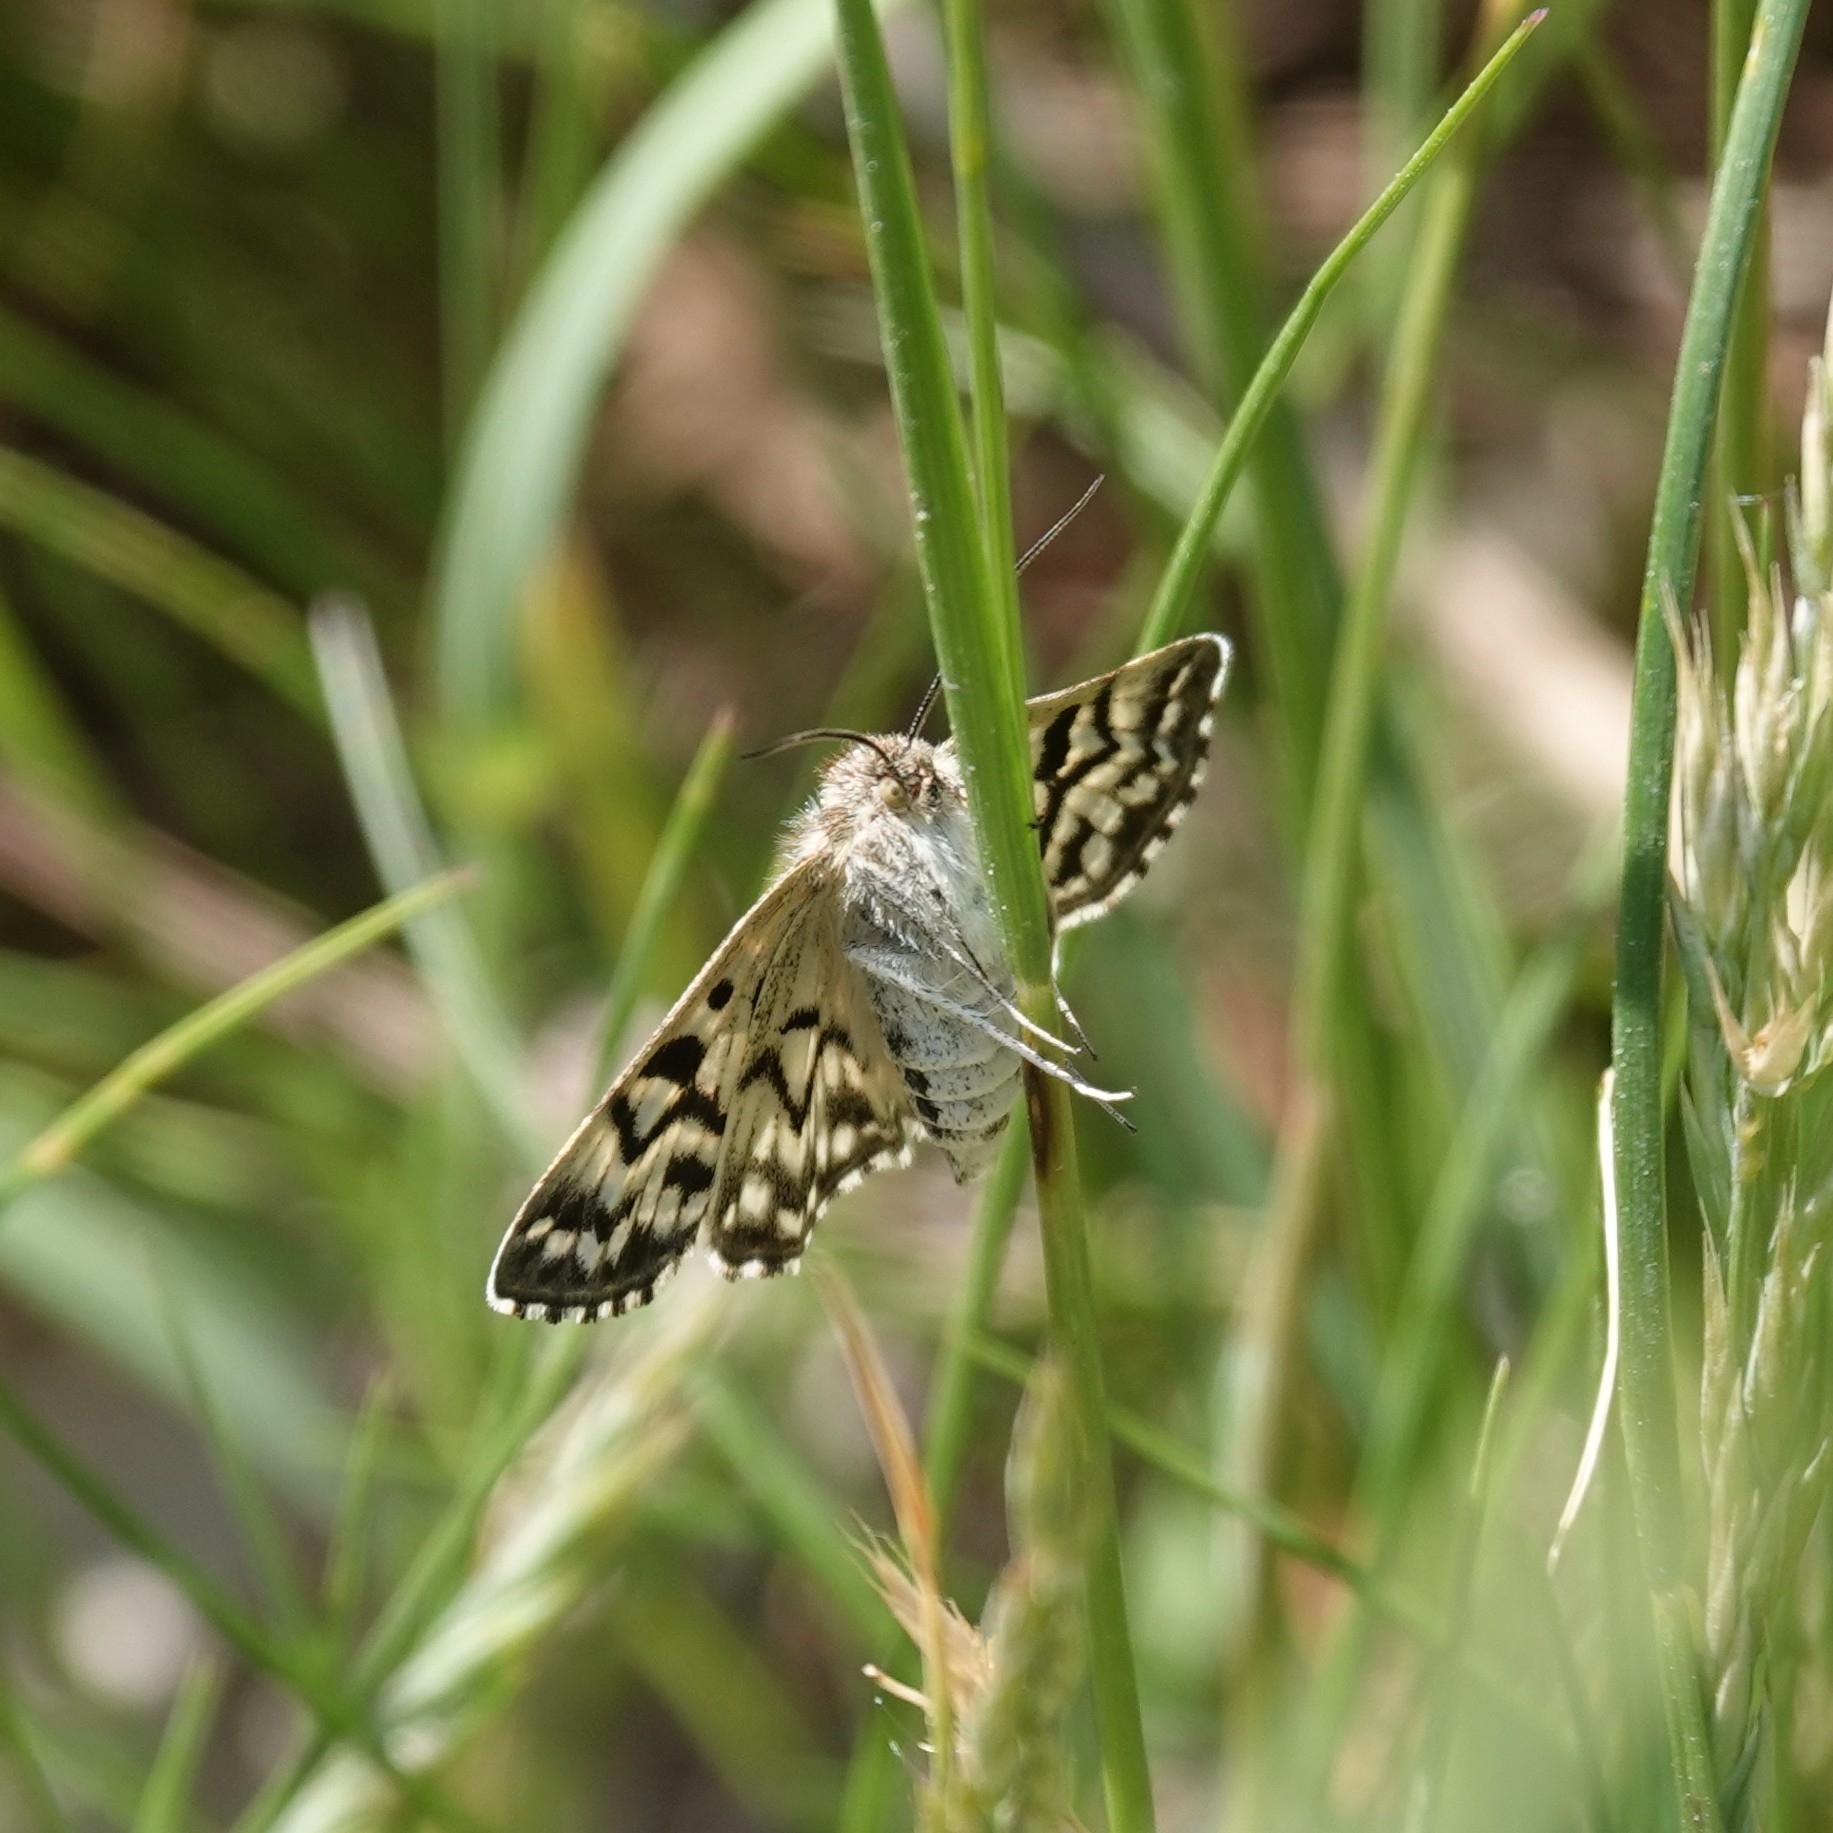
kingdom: Animalia
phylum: Arthropoda
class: Insecta
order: Lepidoptera
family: Erebidae
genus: Callistege
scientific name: Callistege mi
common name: Mother shipton
